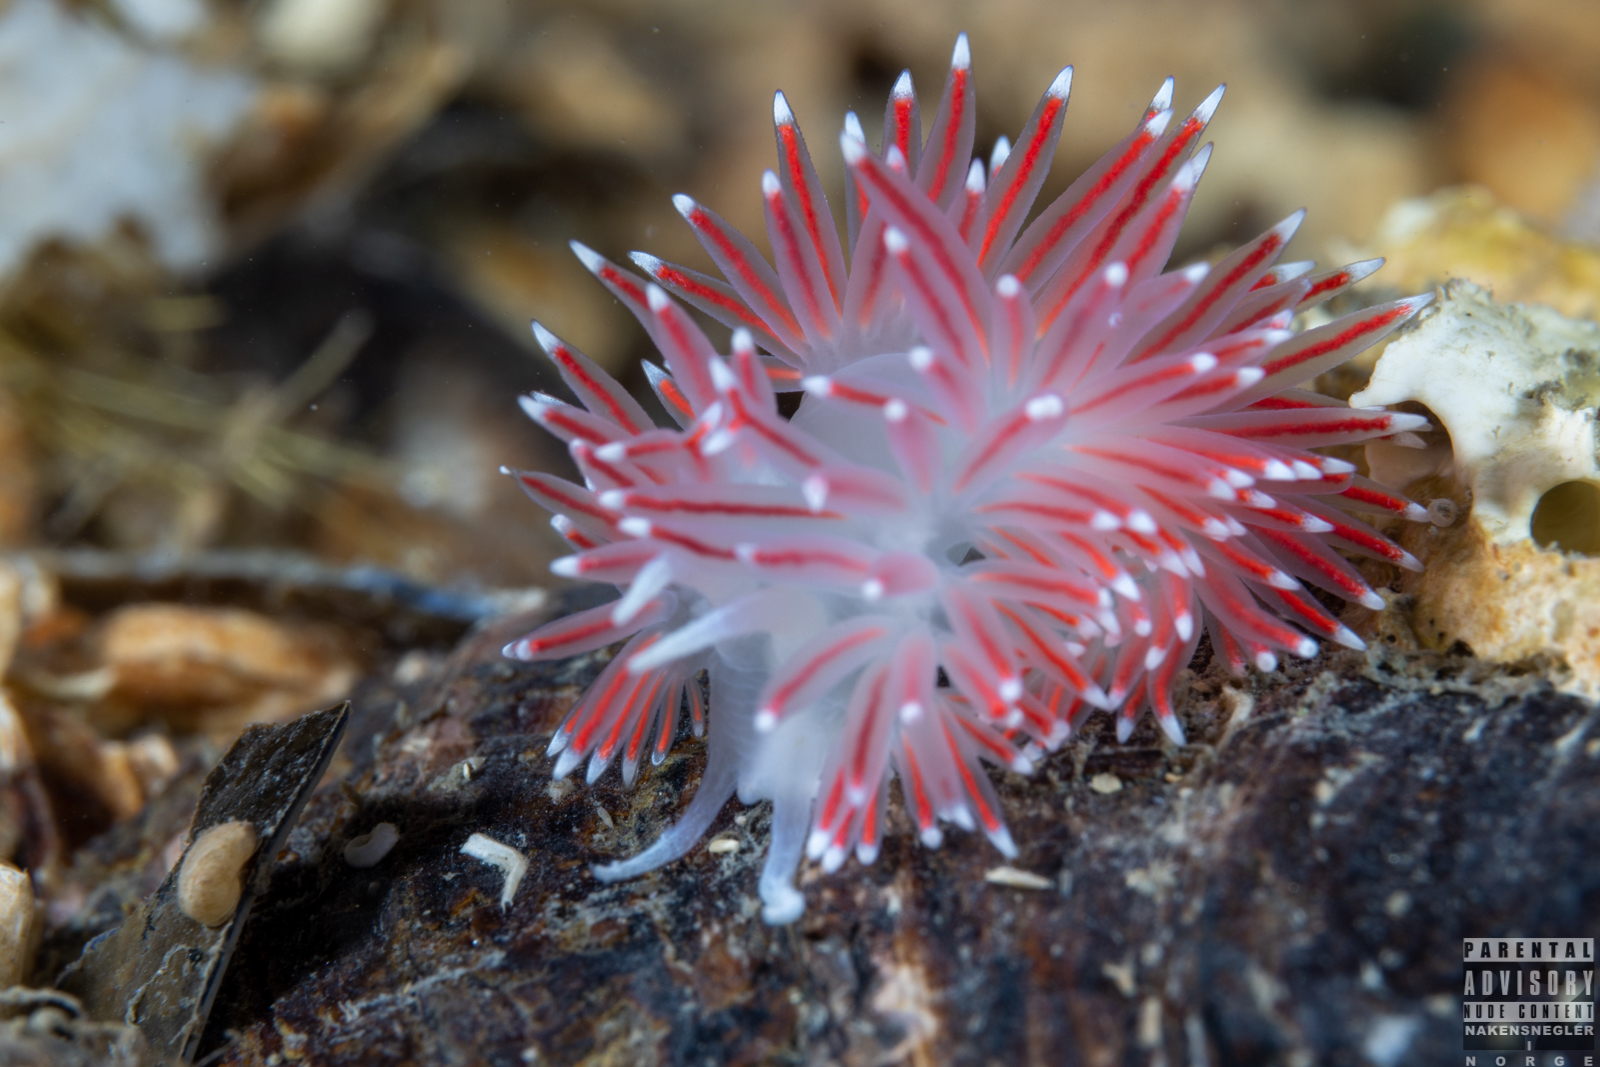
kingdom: Animalia
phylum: Mollusca
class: Gastropoda
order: Nudibranchia
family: Flabellinidae
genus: Carronella
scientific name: Carronella pellucida
